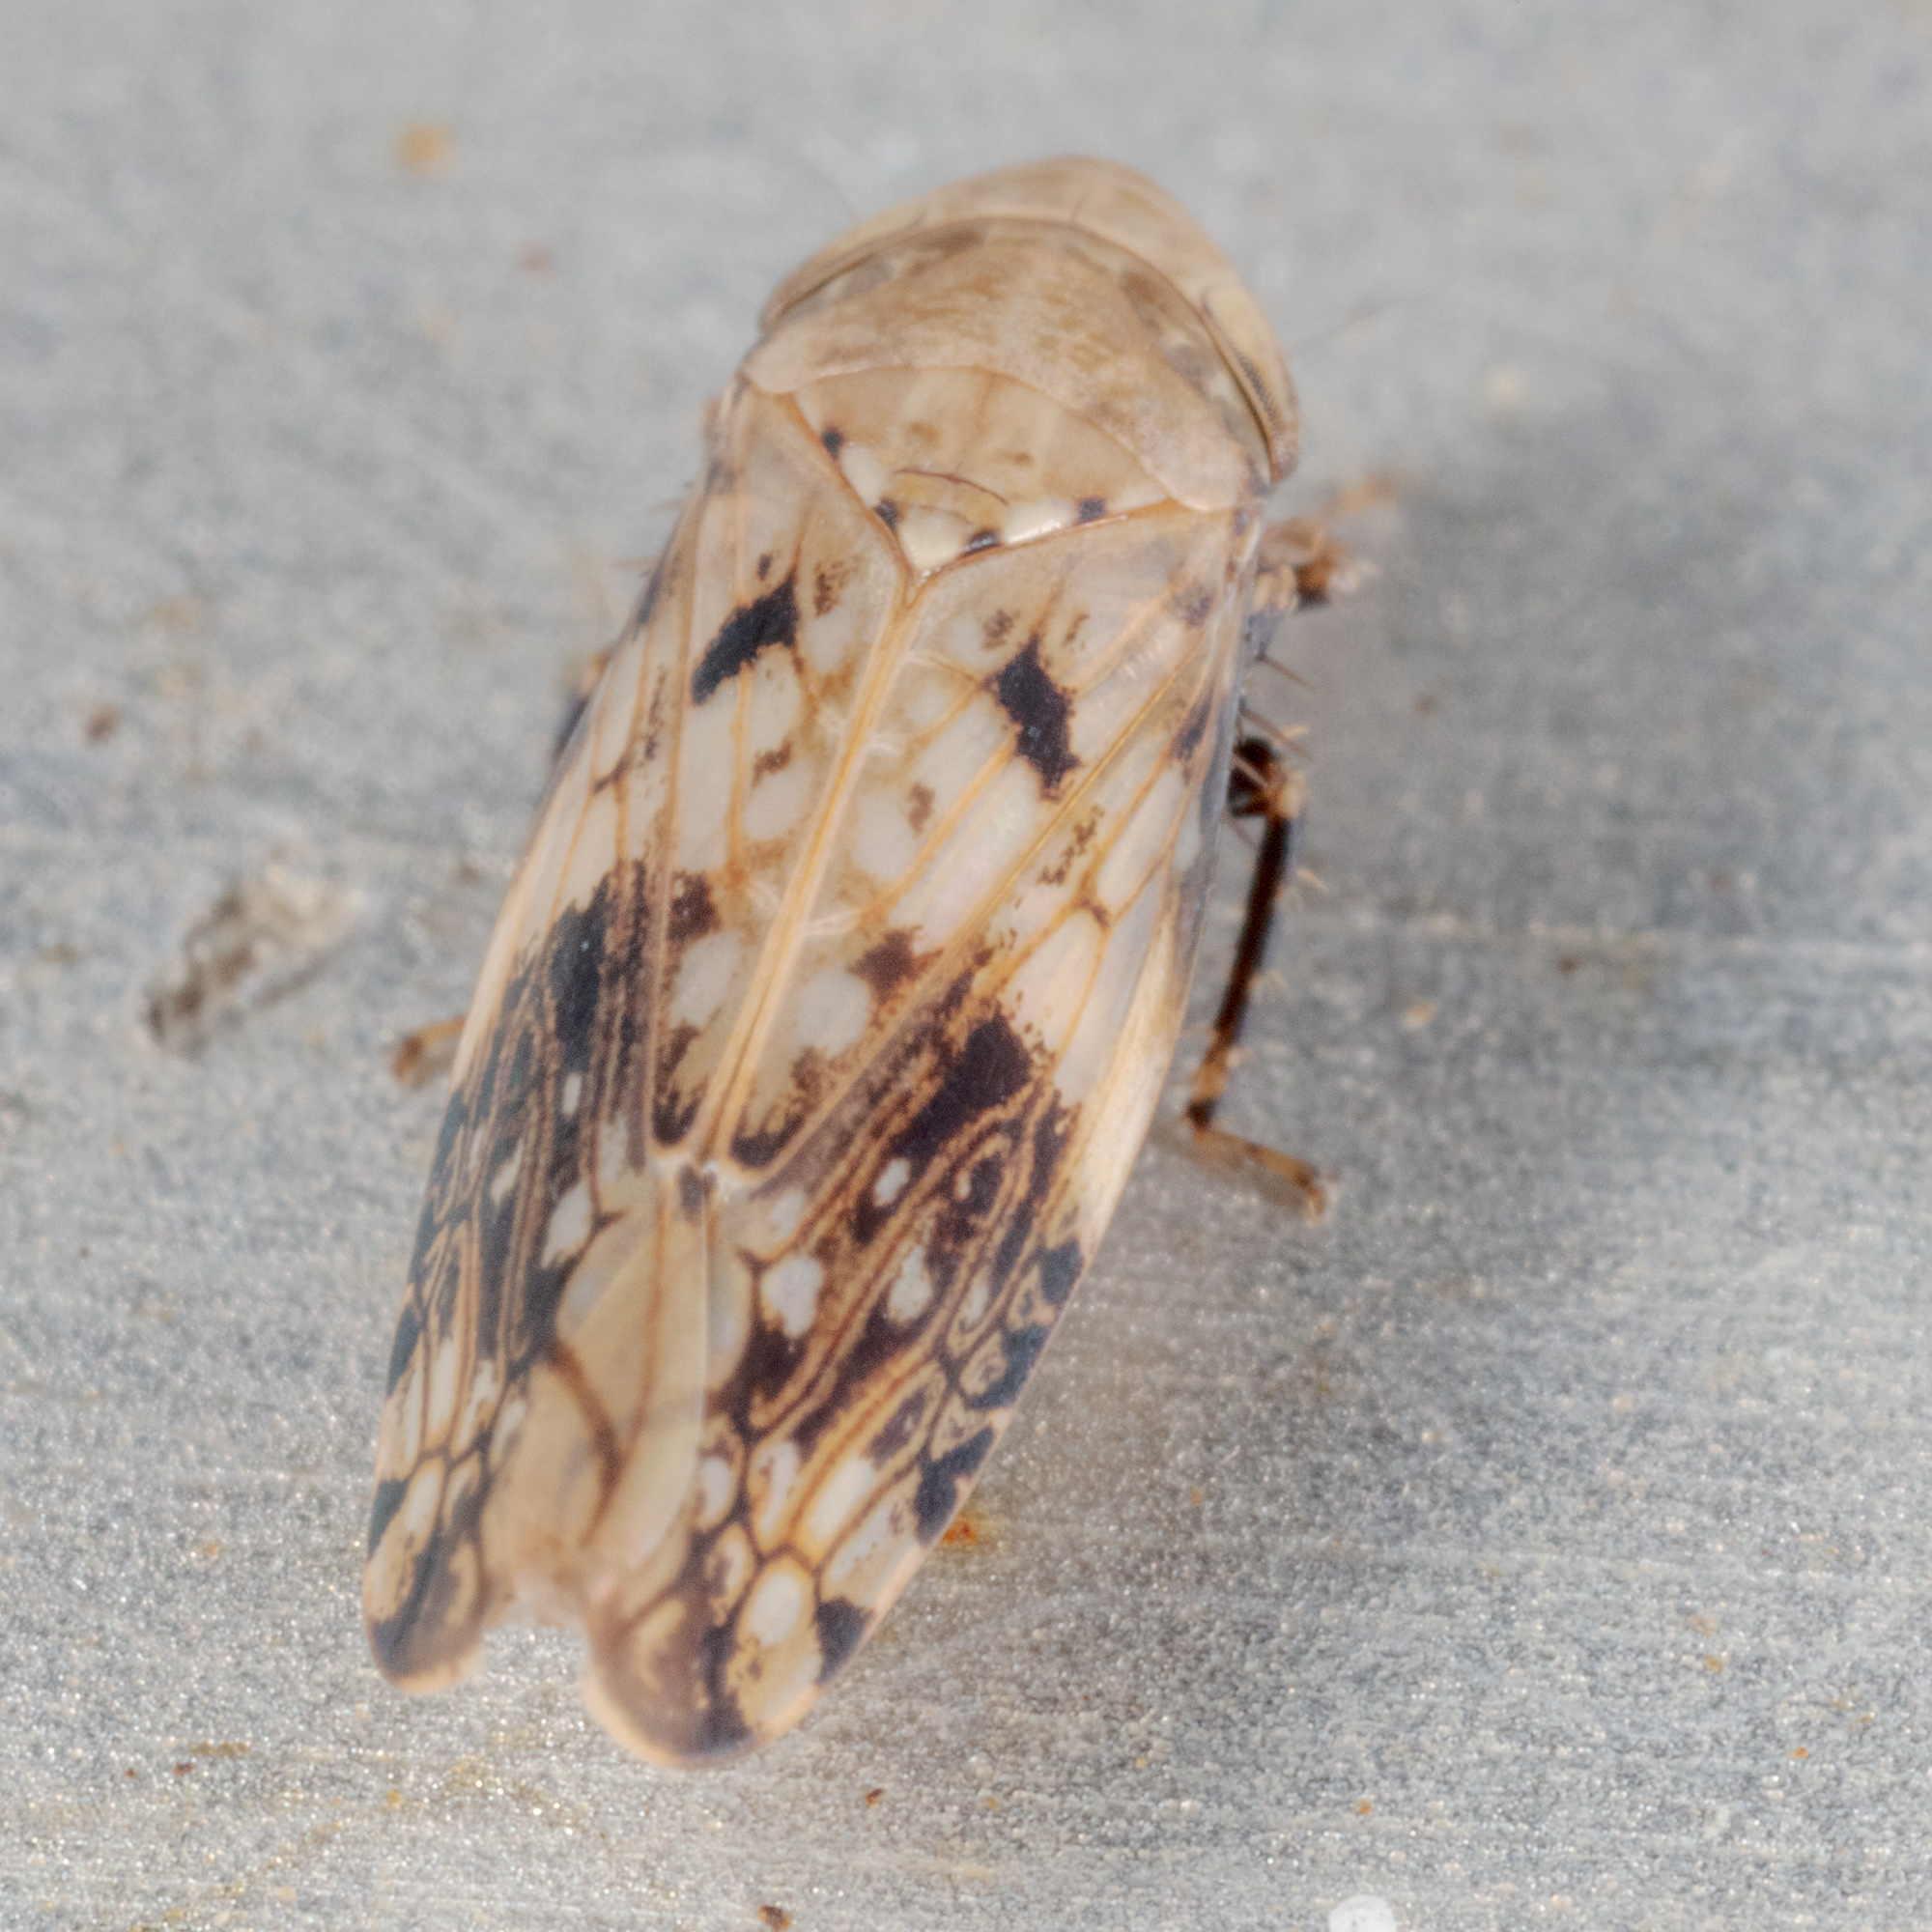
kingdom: Animalia
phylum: Arthropoda
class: Insecta
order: Hemiptera
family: Cicadellidae
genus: Menosoma
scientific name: Menosoma cinctum
